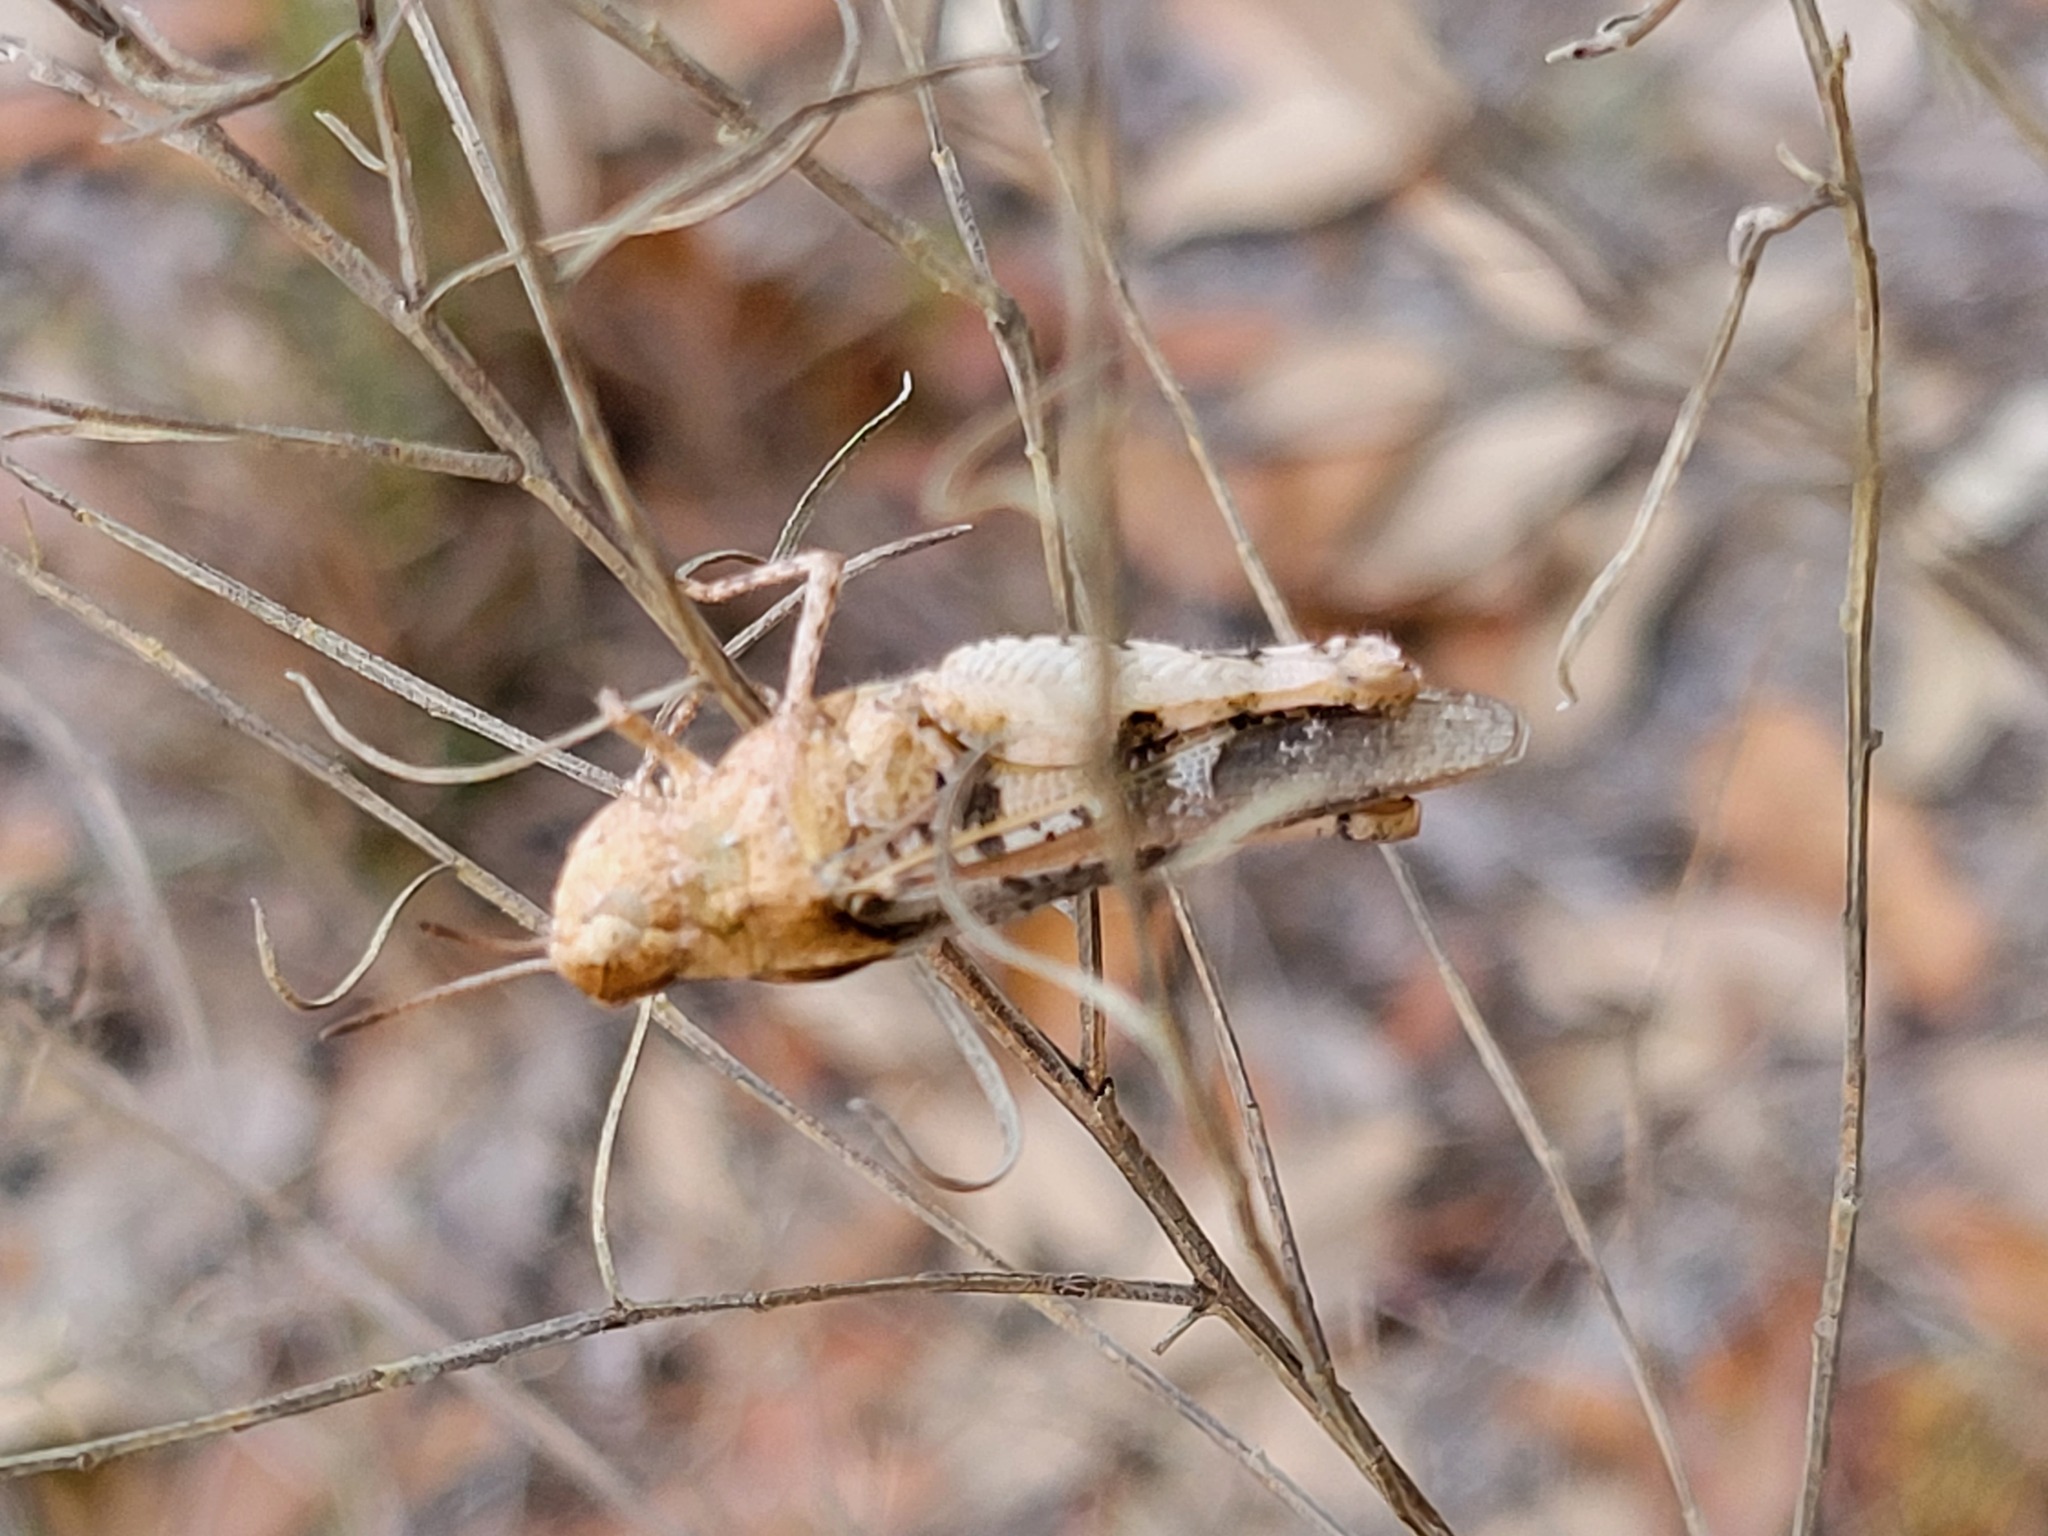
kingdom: Animalia
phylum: Arthropoda
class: Insecta
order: Orthoptera
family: Acrididae
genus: Chortophaga
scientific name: Chortophaga australior
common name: Southern green-striped grasshopper
